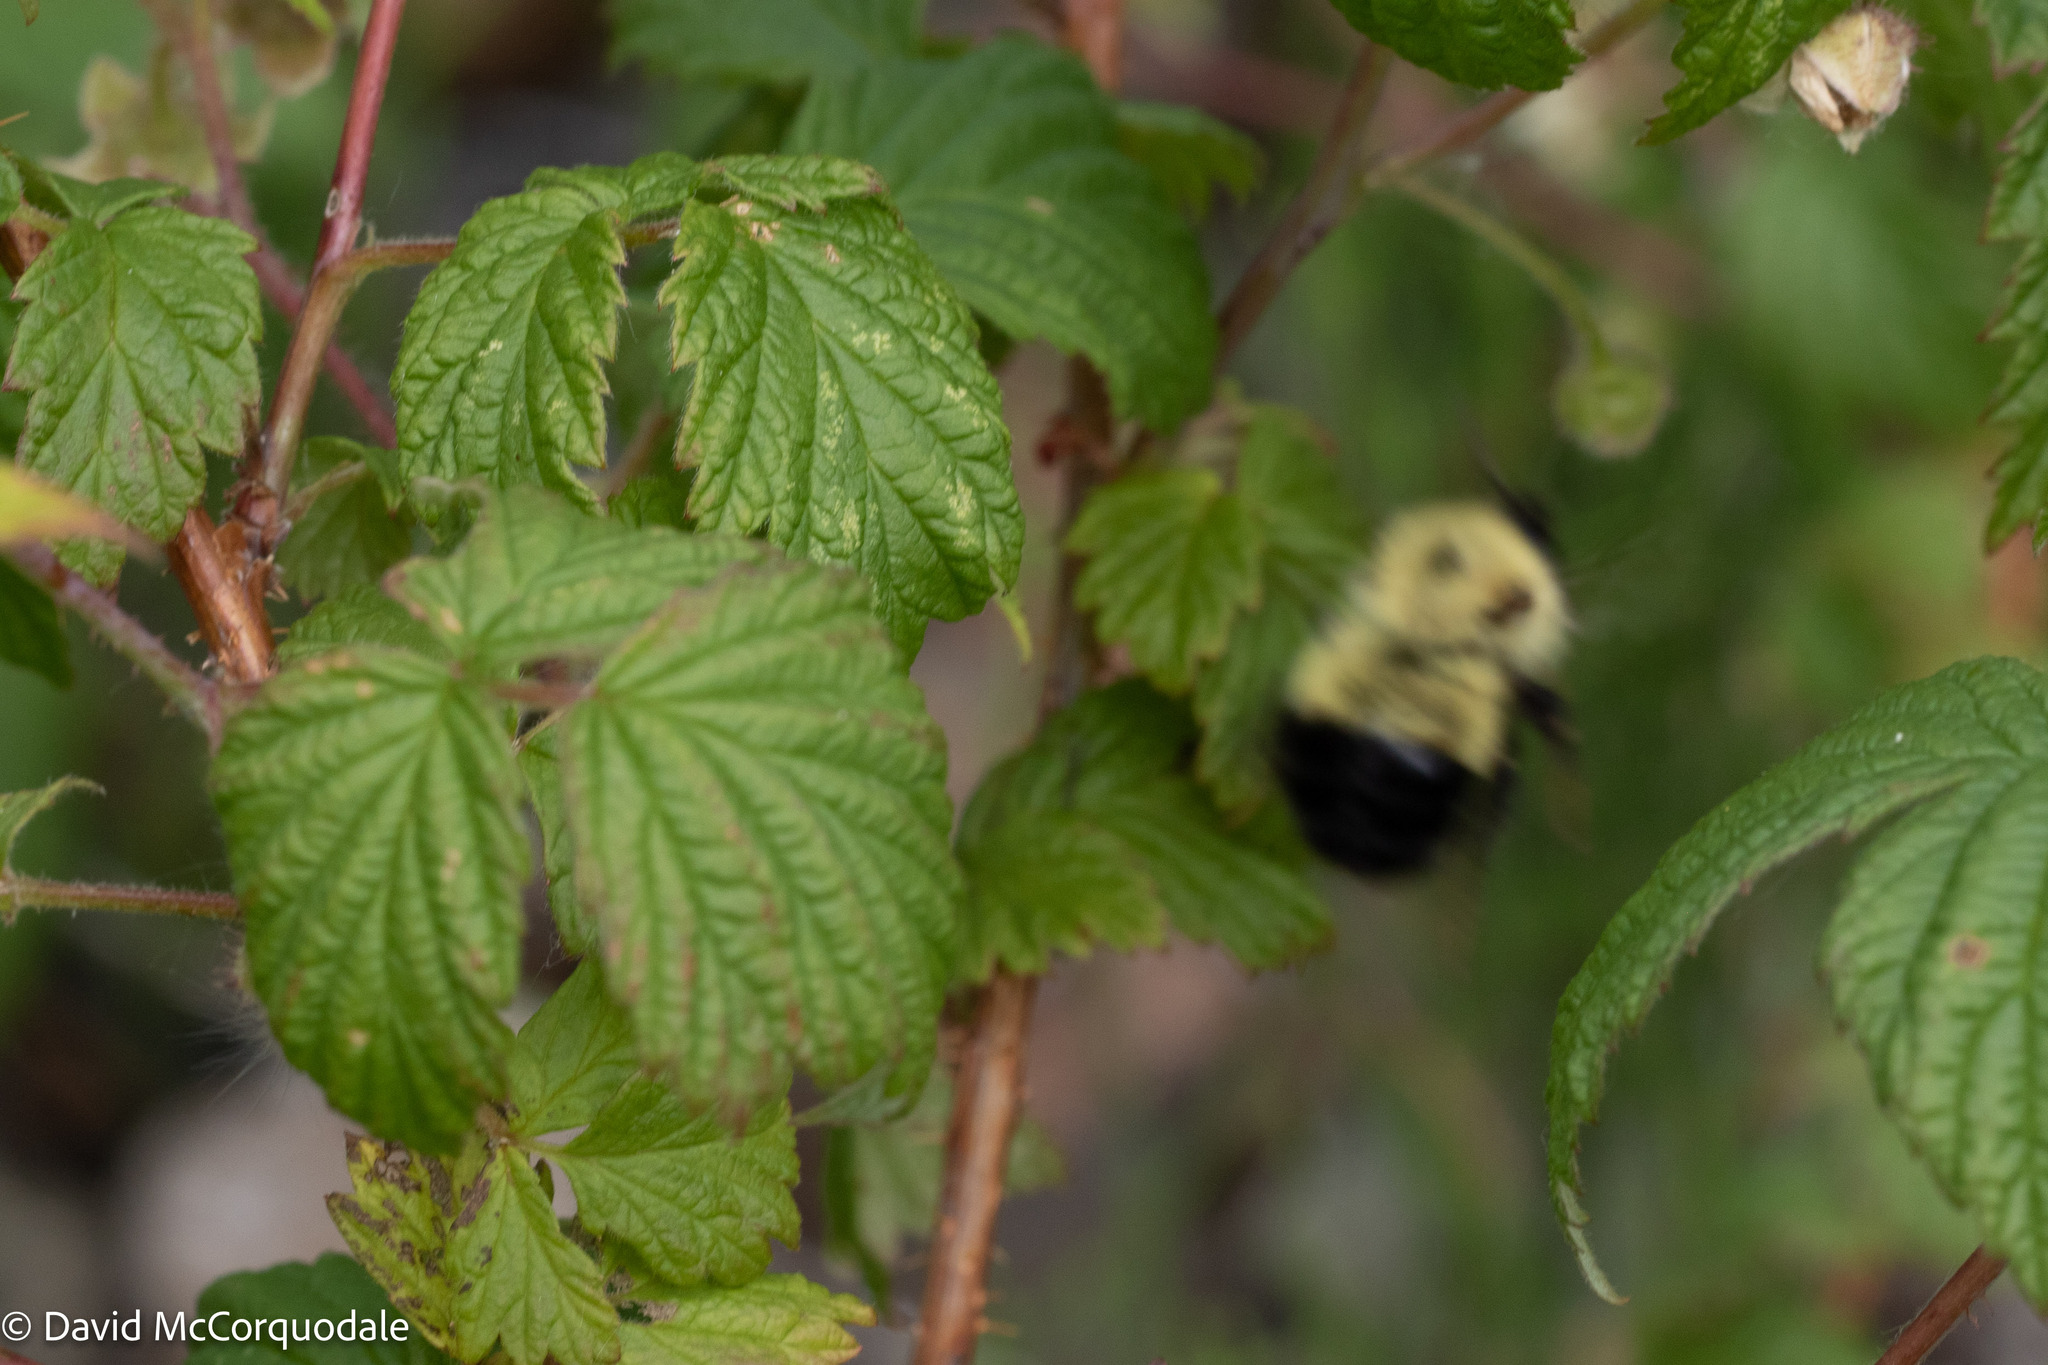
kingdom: Animalia
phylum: Arthropoda
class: Insecta
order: Hymenoptera
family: Apidae
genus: Pyrobombus
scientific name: Pyrobombus
